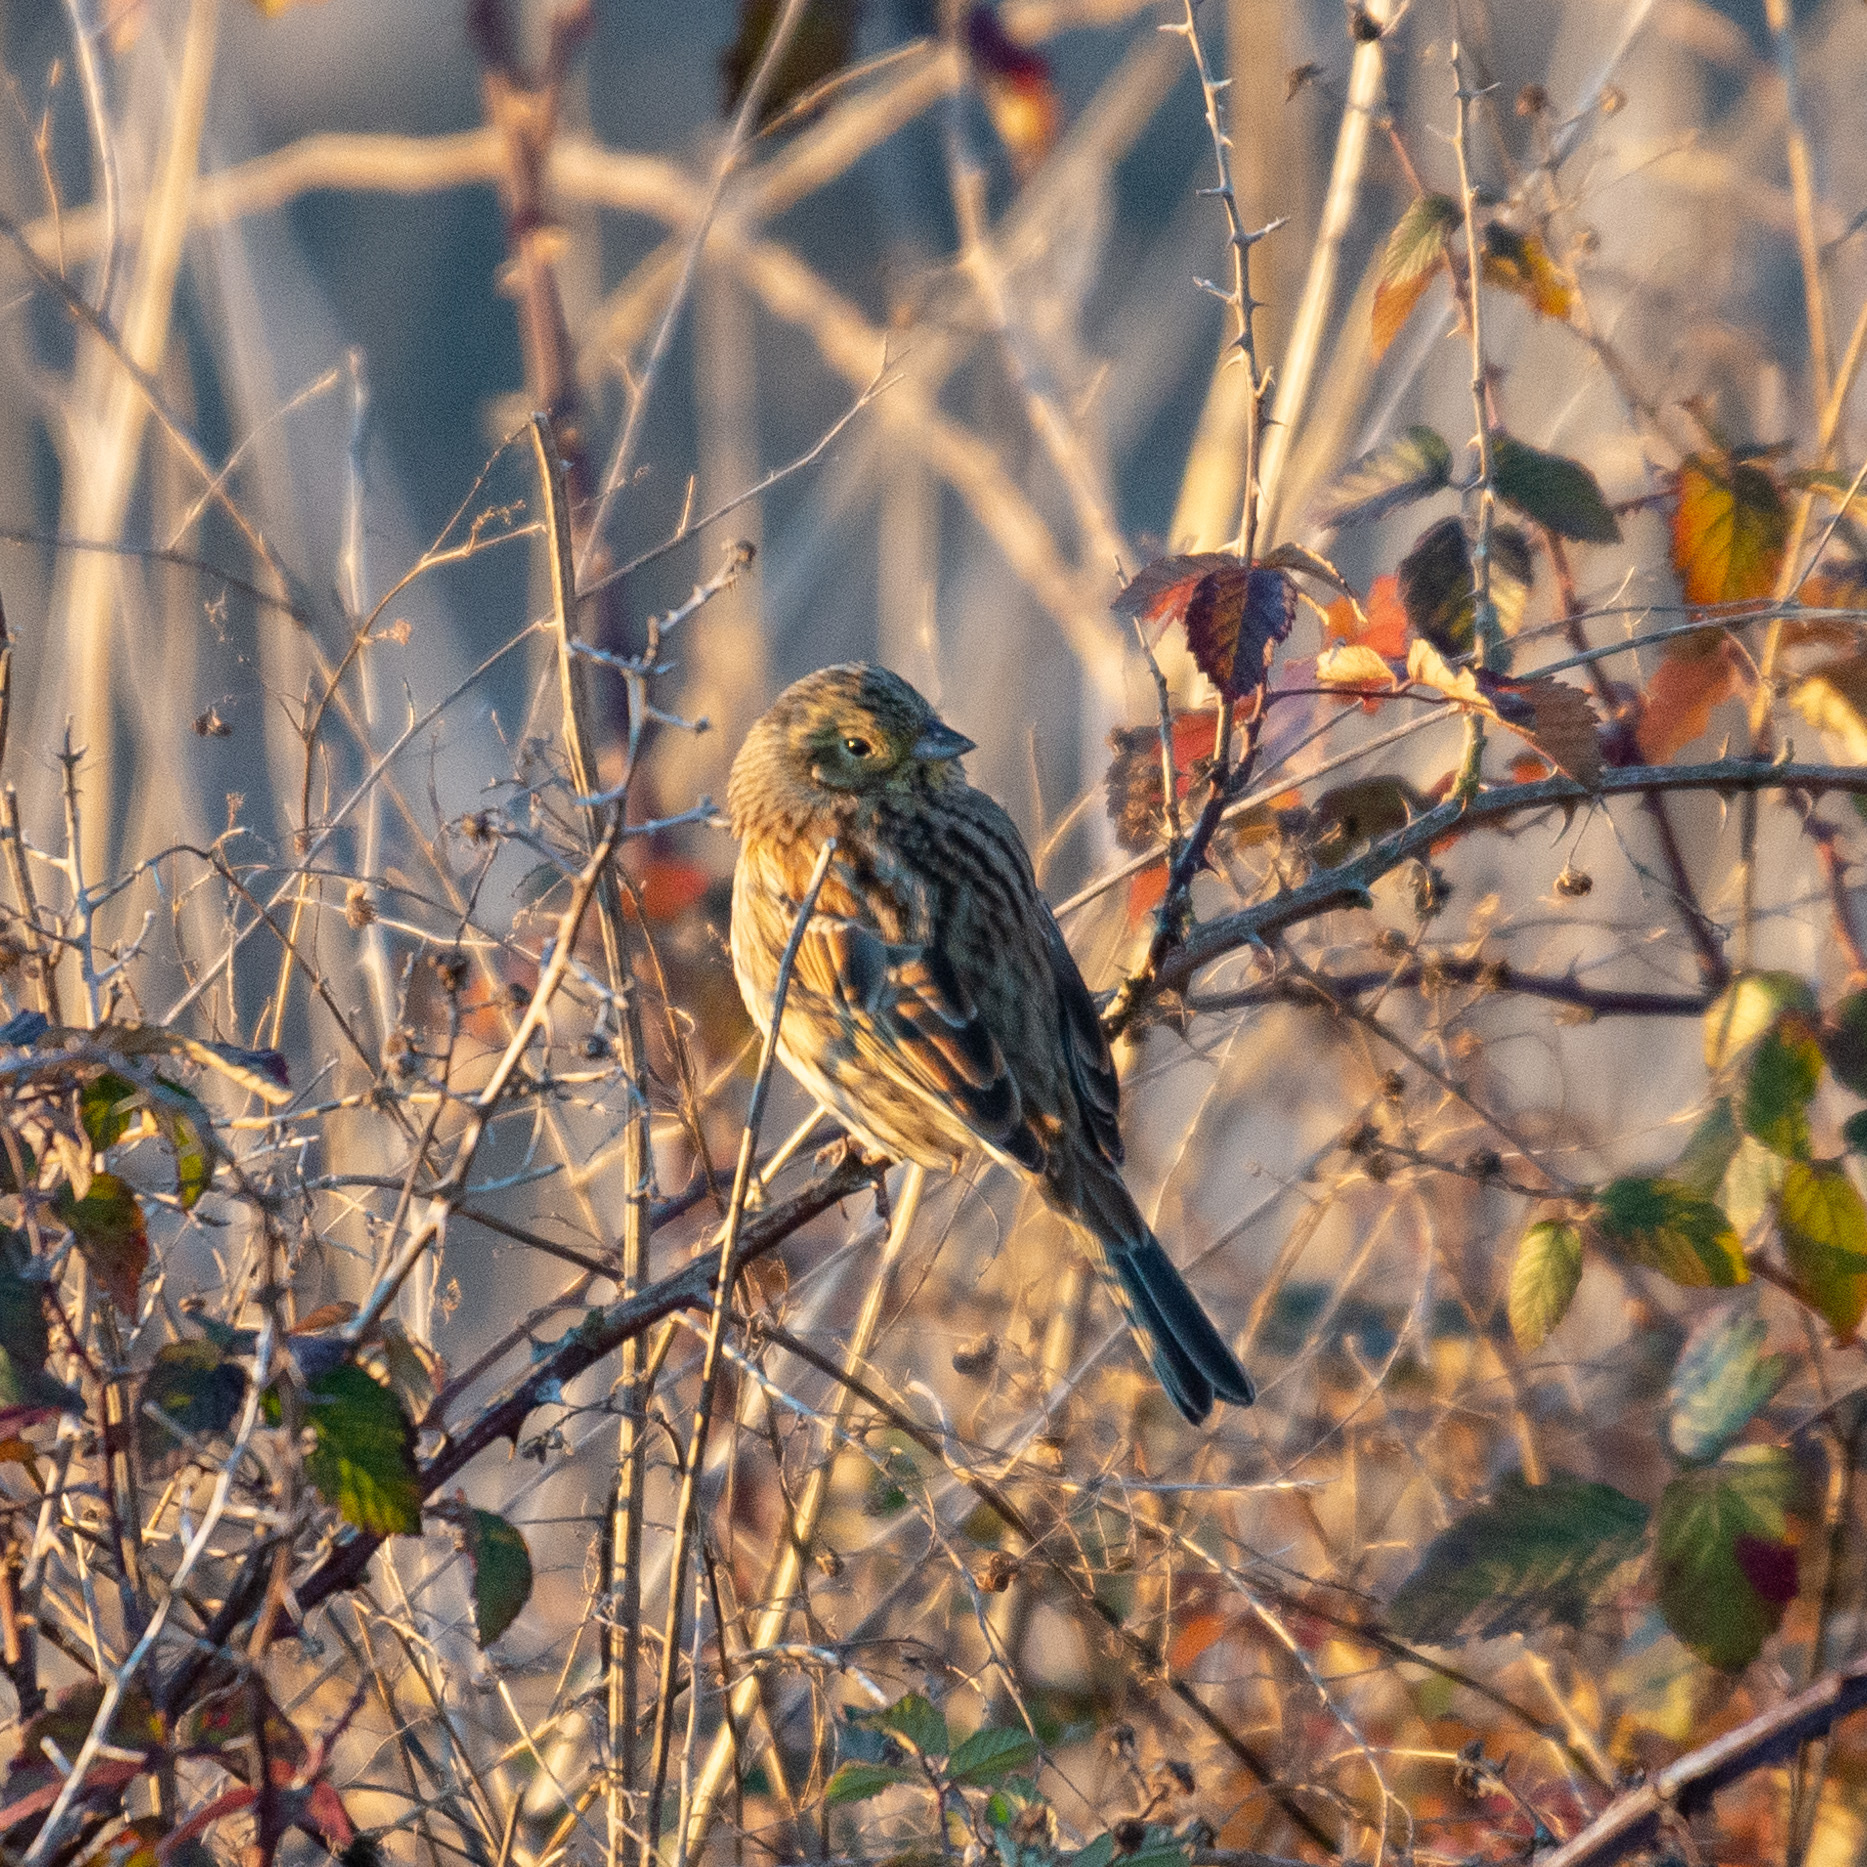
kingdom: Animalia
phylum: Chordata
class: Aves
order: Passeriformes
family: Emberizidae
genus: Emberiza
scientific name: Emberiza cirlus
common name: Cirl bunting
